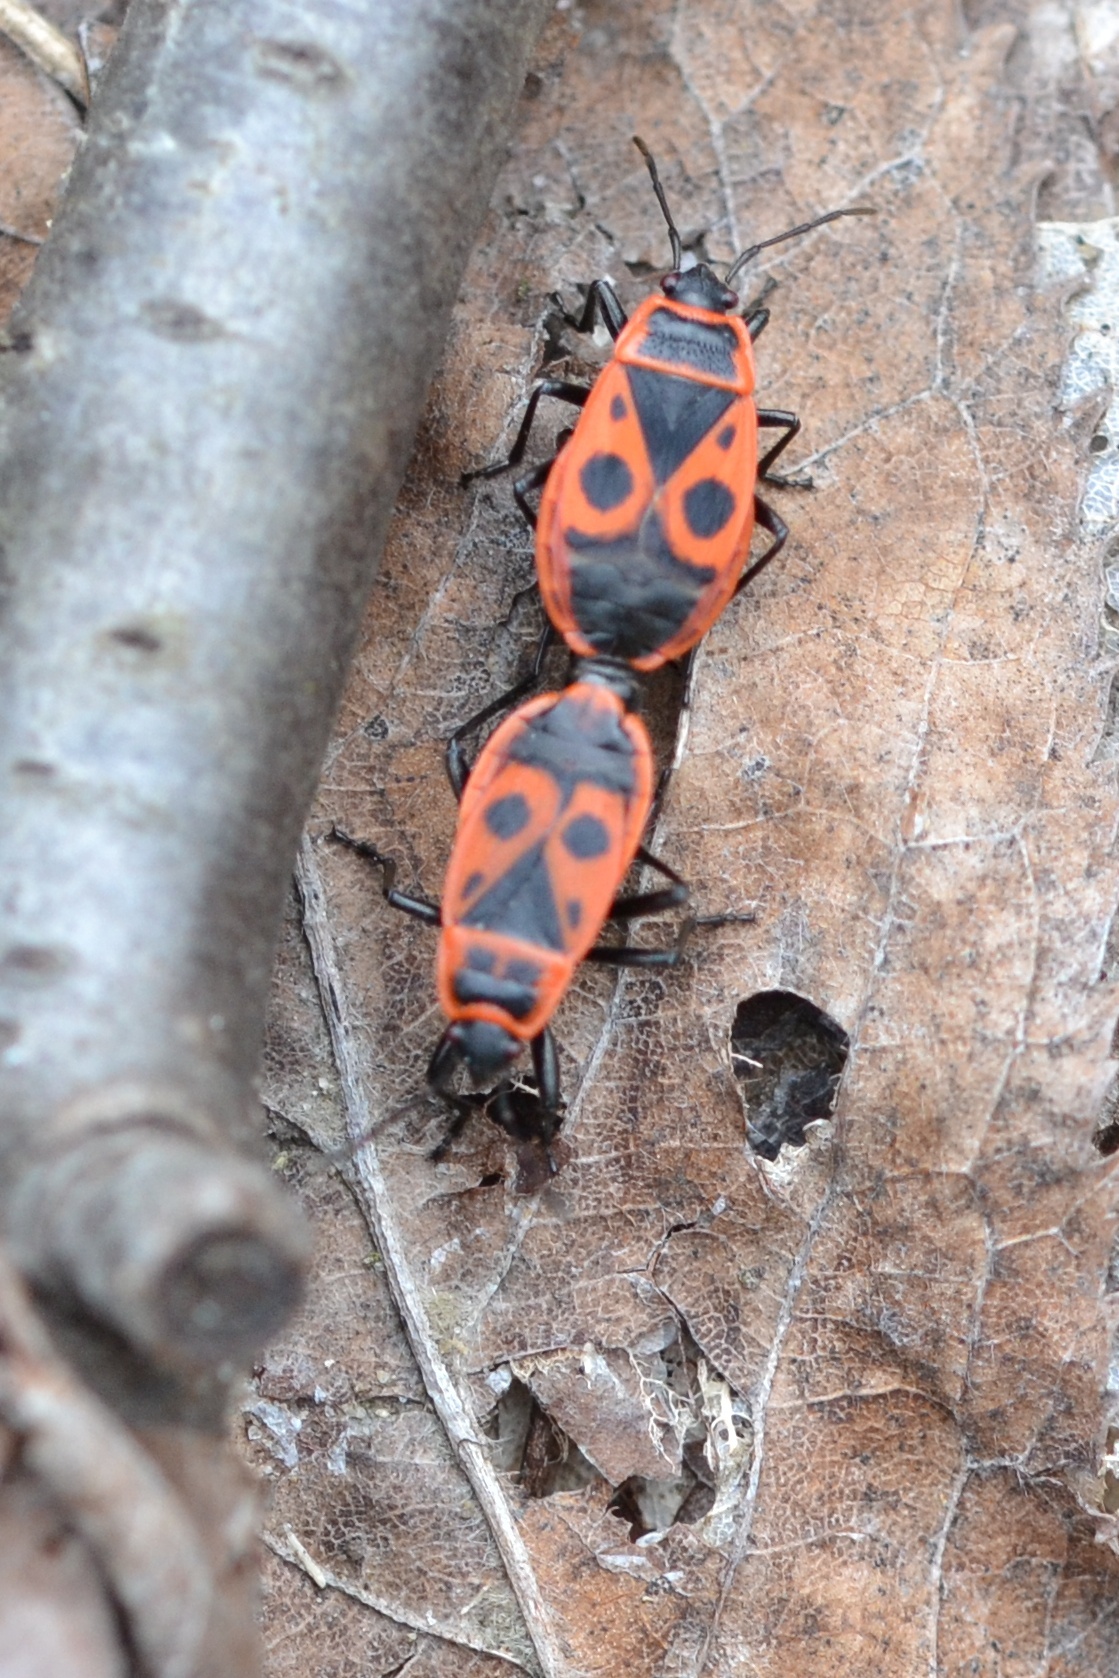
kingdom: Animalia
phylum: Arthropoda
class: Insecta
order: Hemiptera
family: Pyrrhocoridae
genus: Pyrrhocoris
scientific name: Pyrrhocoris apterus
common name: Firebug
